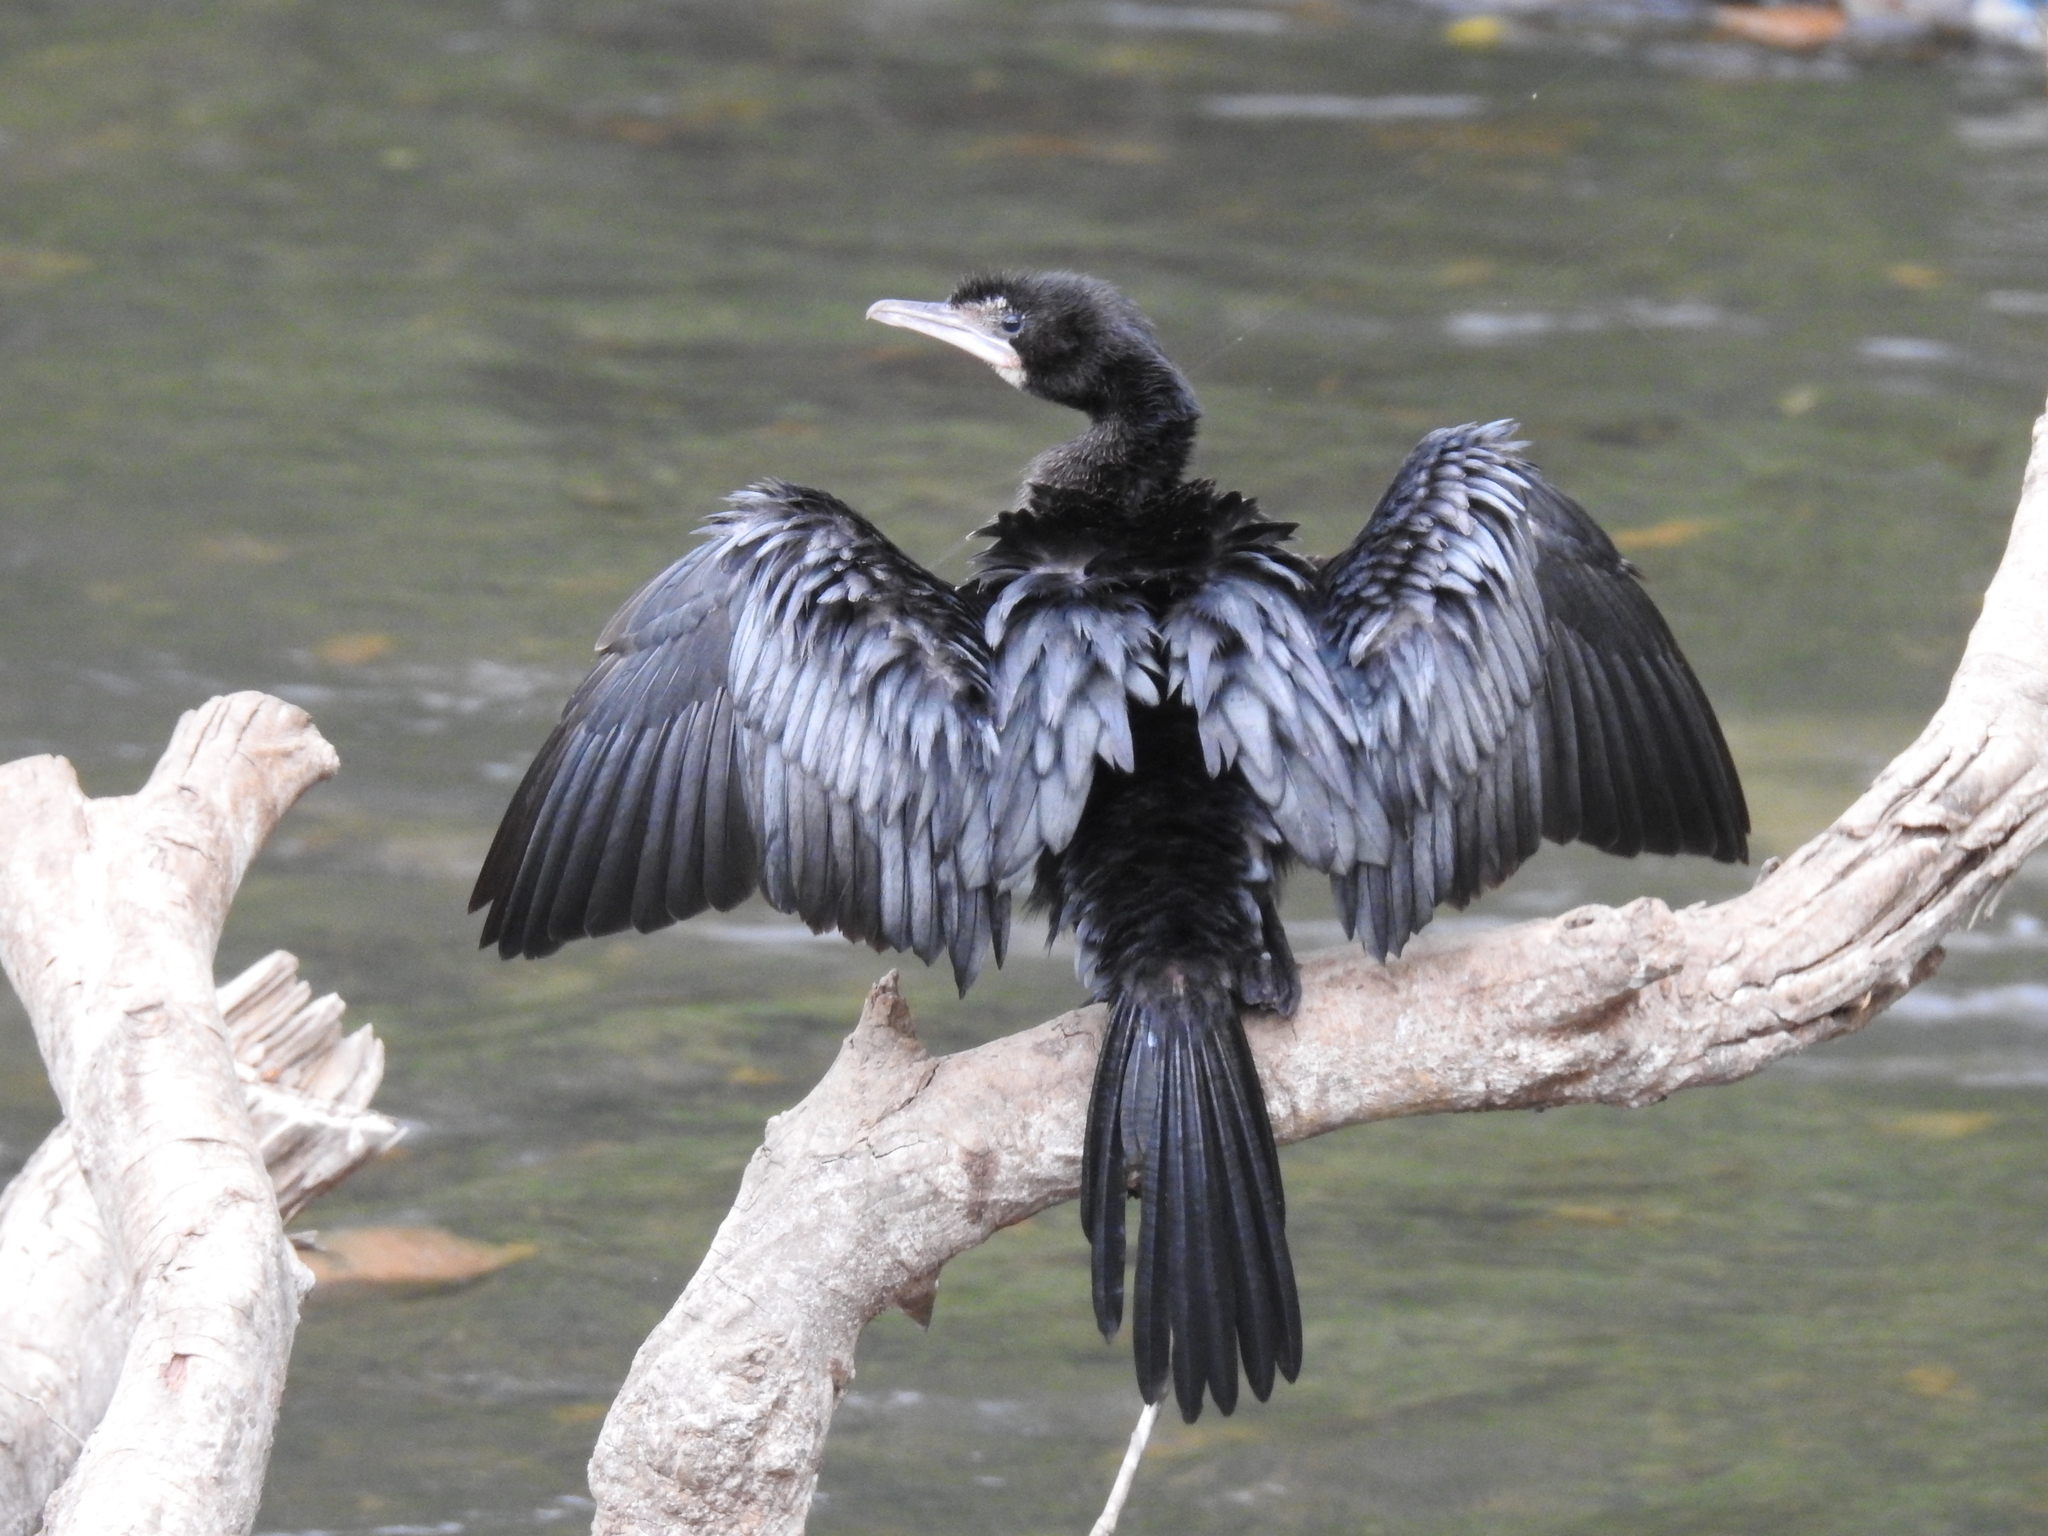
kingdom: Animalia
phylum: Chordata
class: Aves
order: Suliformes
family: Phalacrocoracidae
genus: Microcarbo
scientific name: Microcarbo niger
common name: Little cormorant
